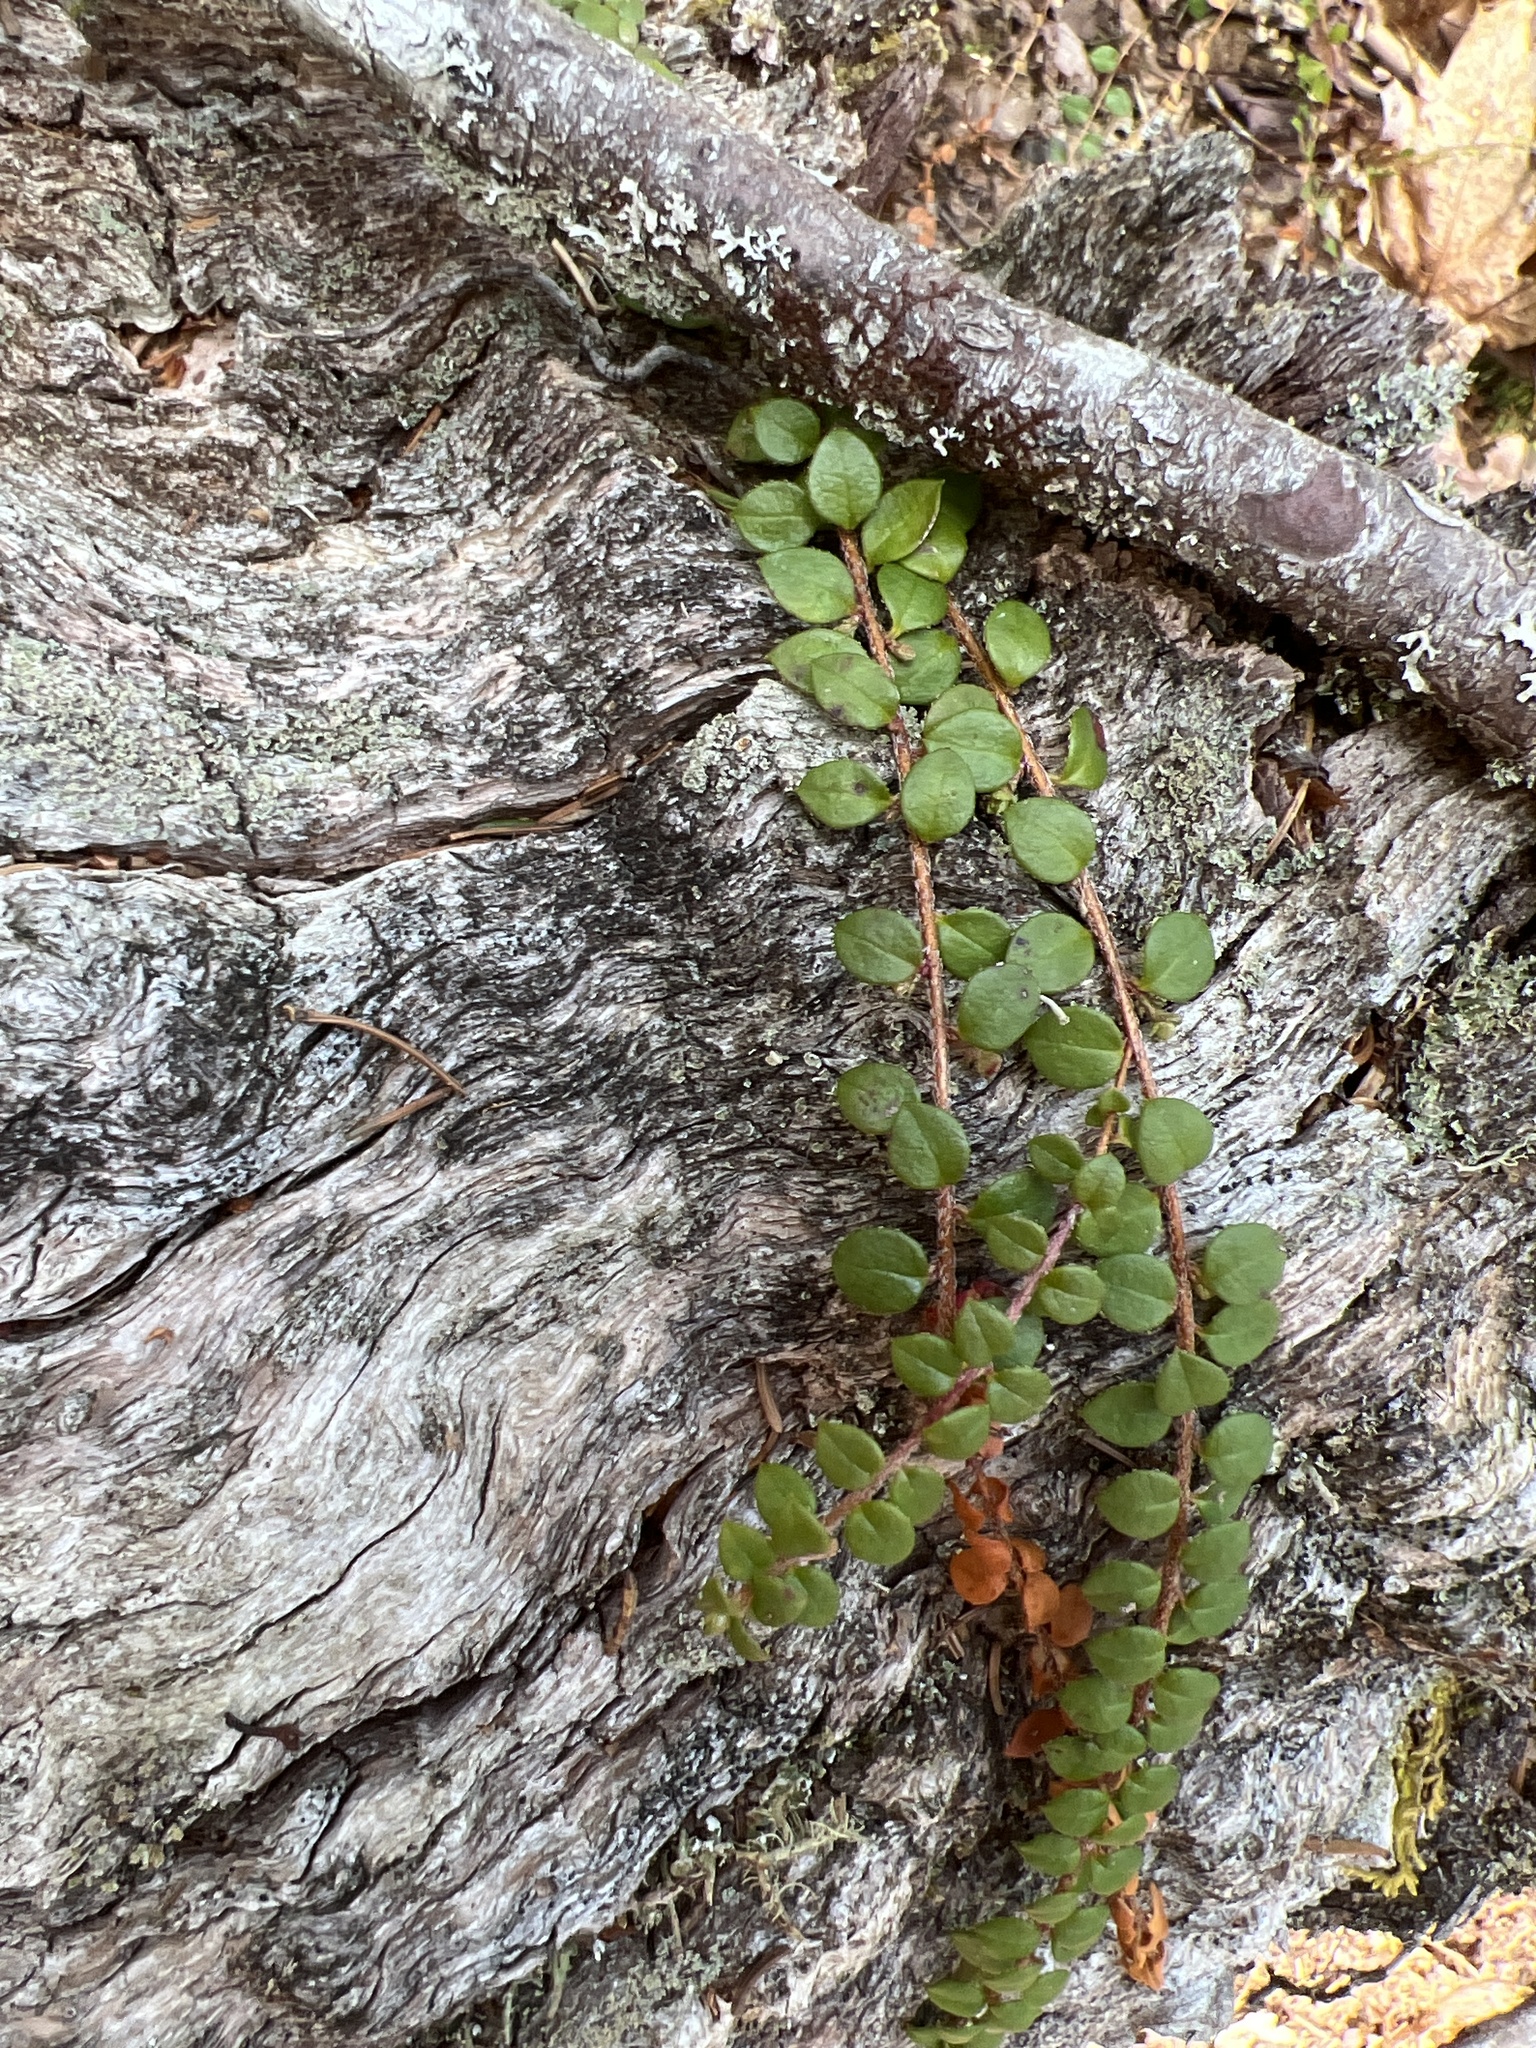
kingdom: Plantae
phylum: Tracheophyta
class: Magnoliopsida
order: Ericales
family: Ericaceae
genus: Gaultheria
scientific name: Gaultheria hispidula
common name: Cancer wintergreen
